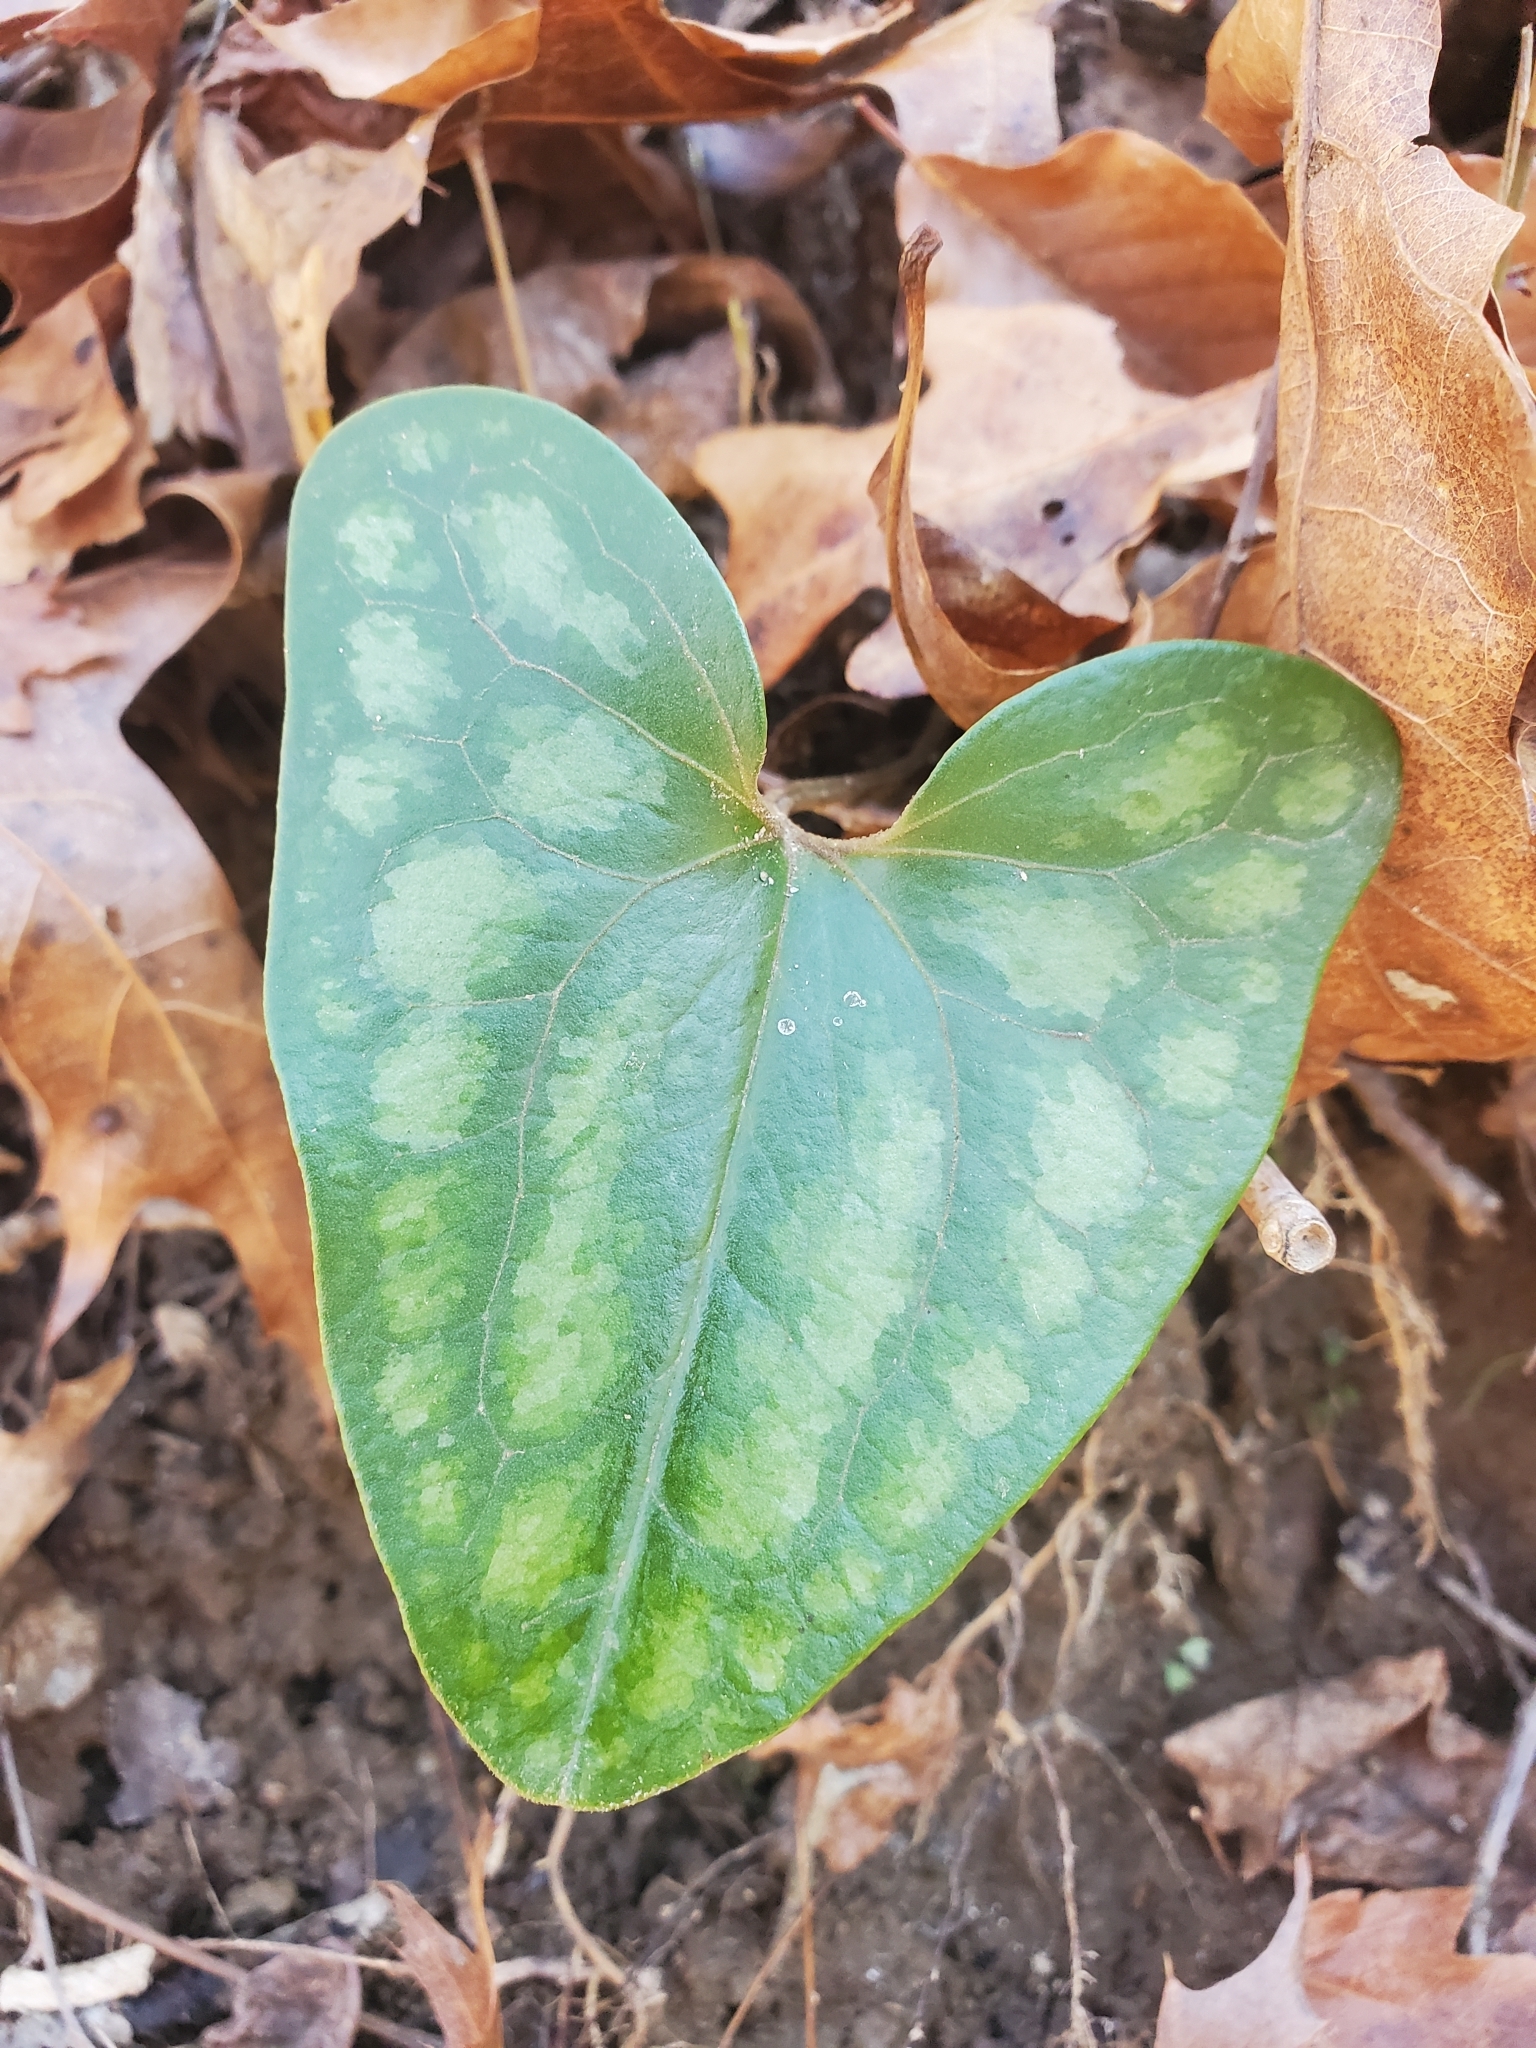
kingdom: Plantae
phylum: Tracheophyta
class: Magnoliopsida
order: Piperales
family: Aristolochiaceae
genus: Hexastylis
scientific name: Hexastylis arifolia
